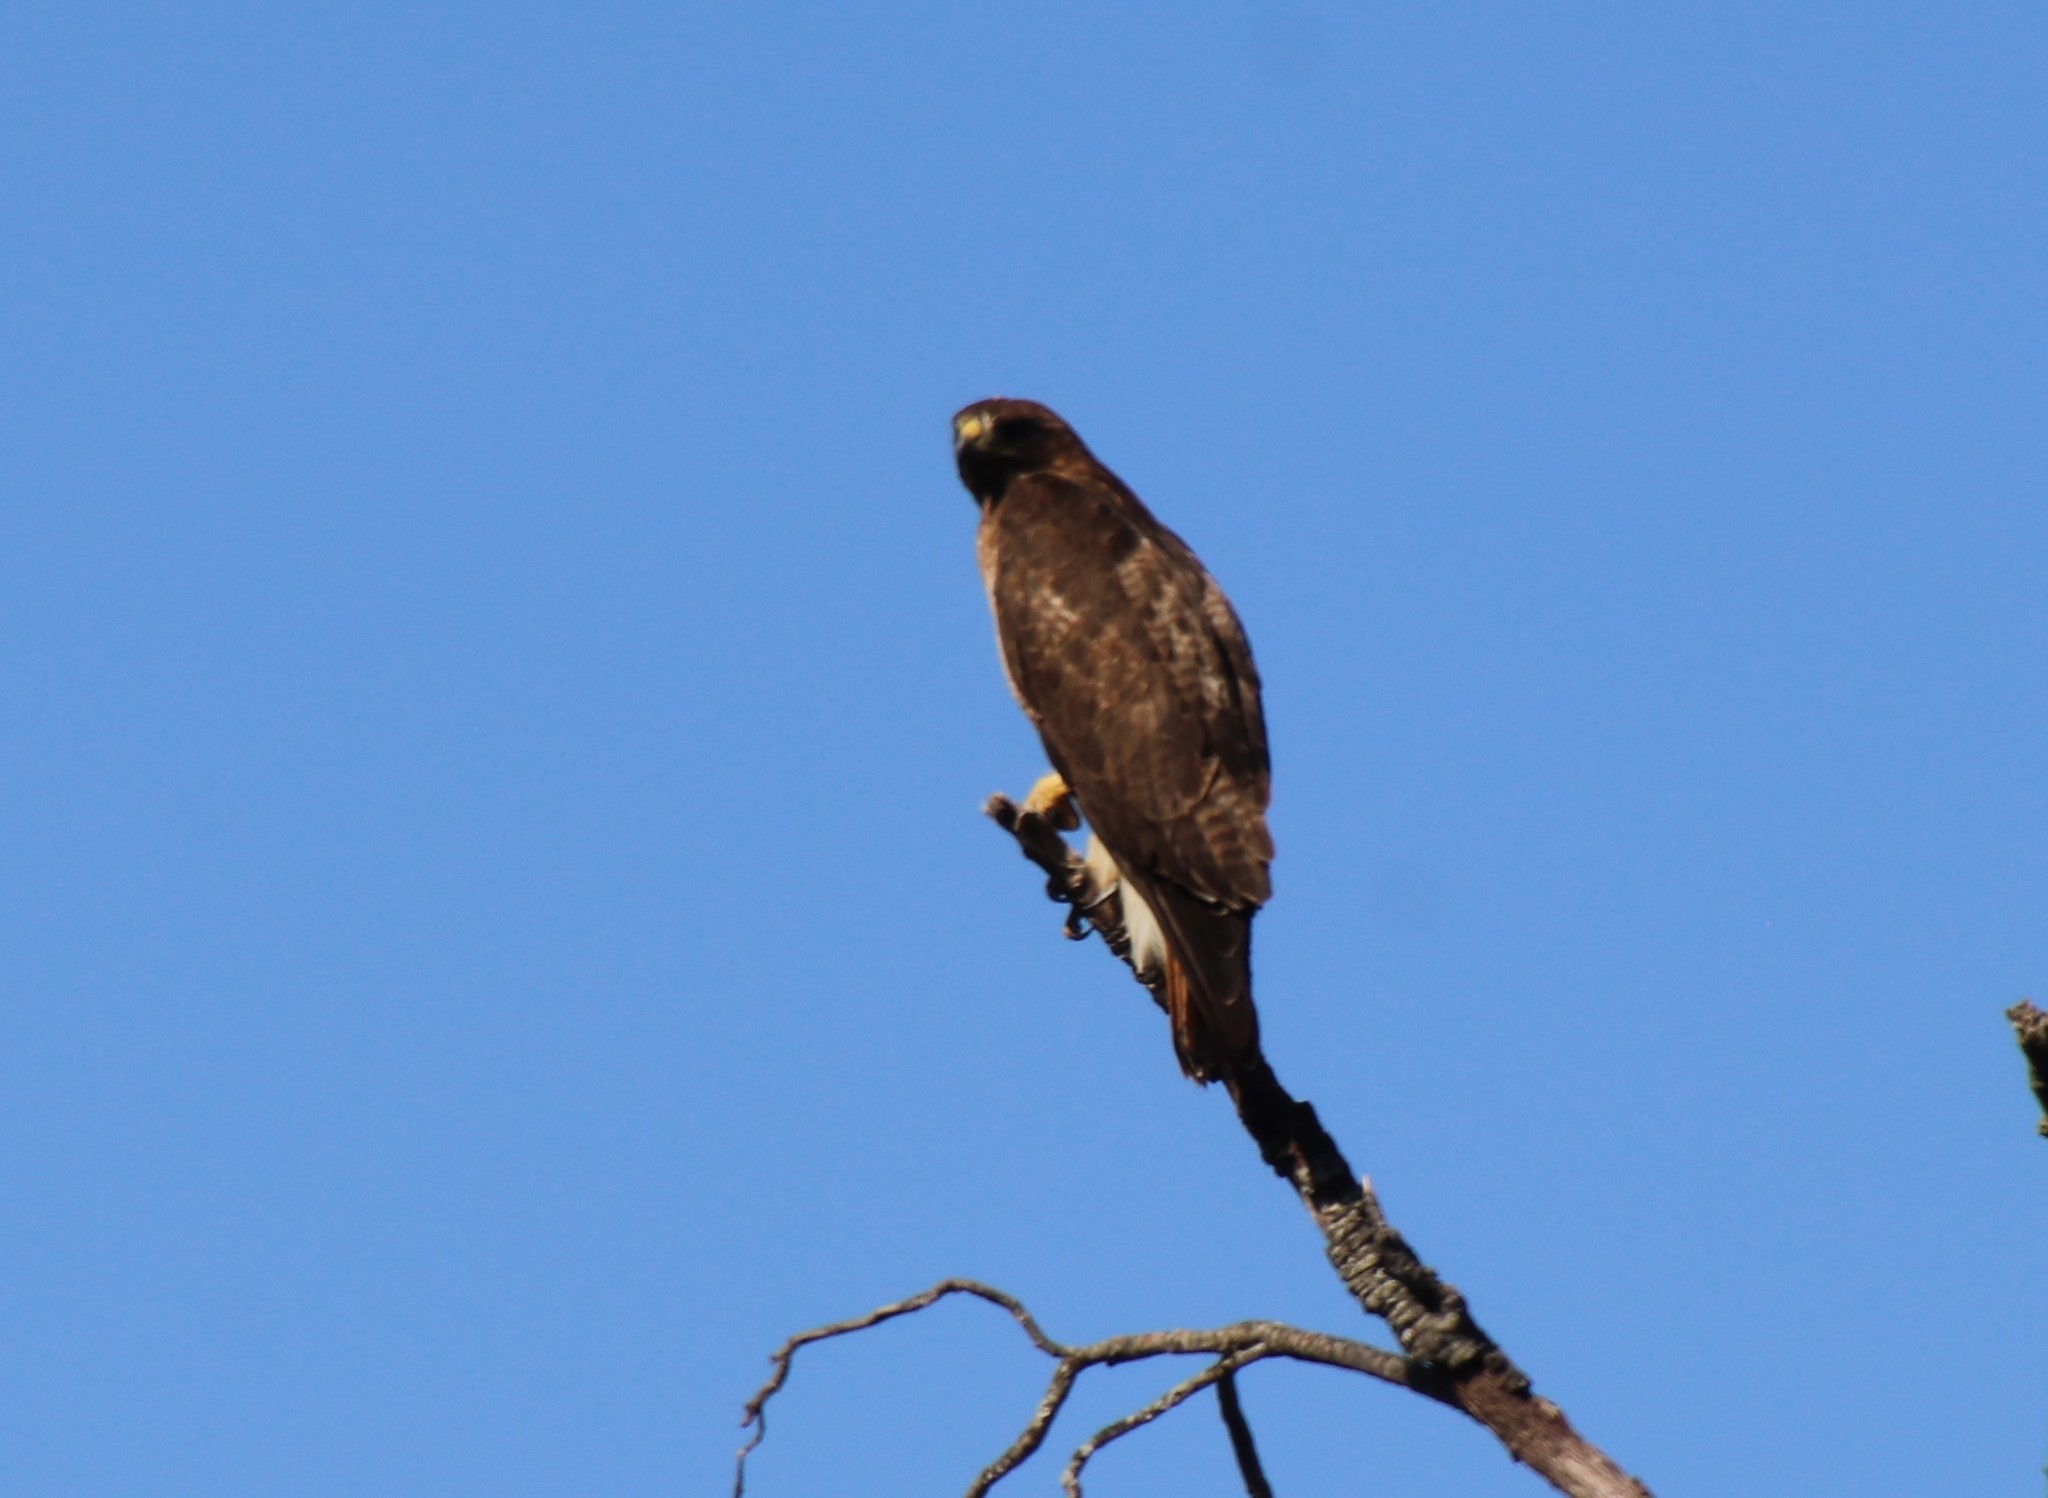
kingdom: Animalia
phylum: Chordata
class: Aves
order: Accipitriformes
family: Accipitridae
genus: Buteo
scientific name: Buteo jamaicensis
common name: Red-tailed hawk
